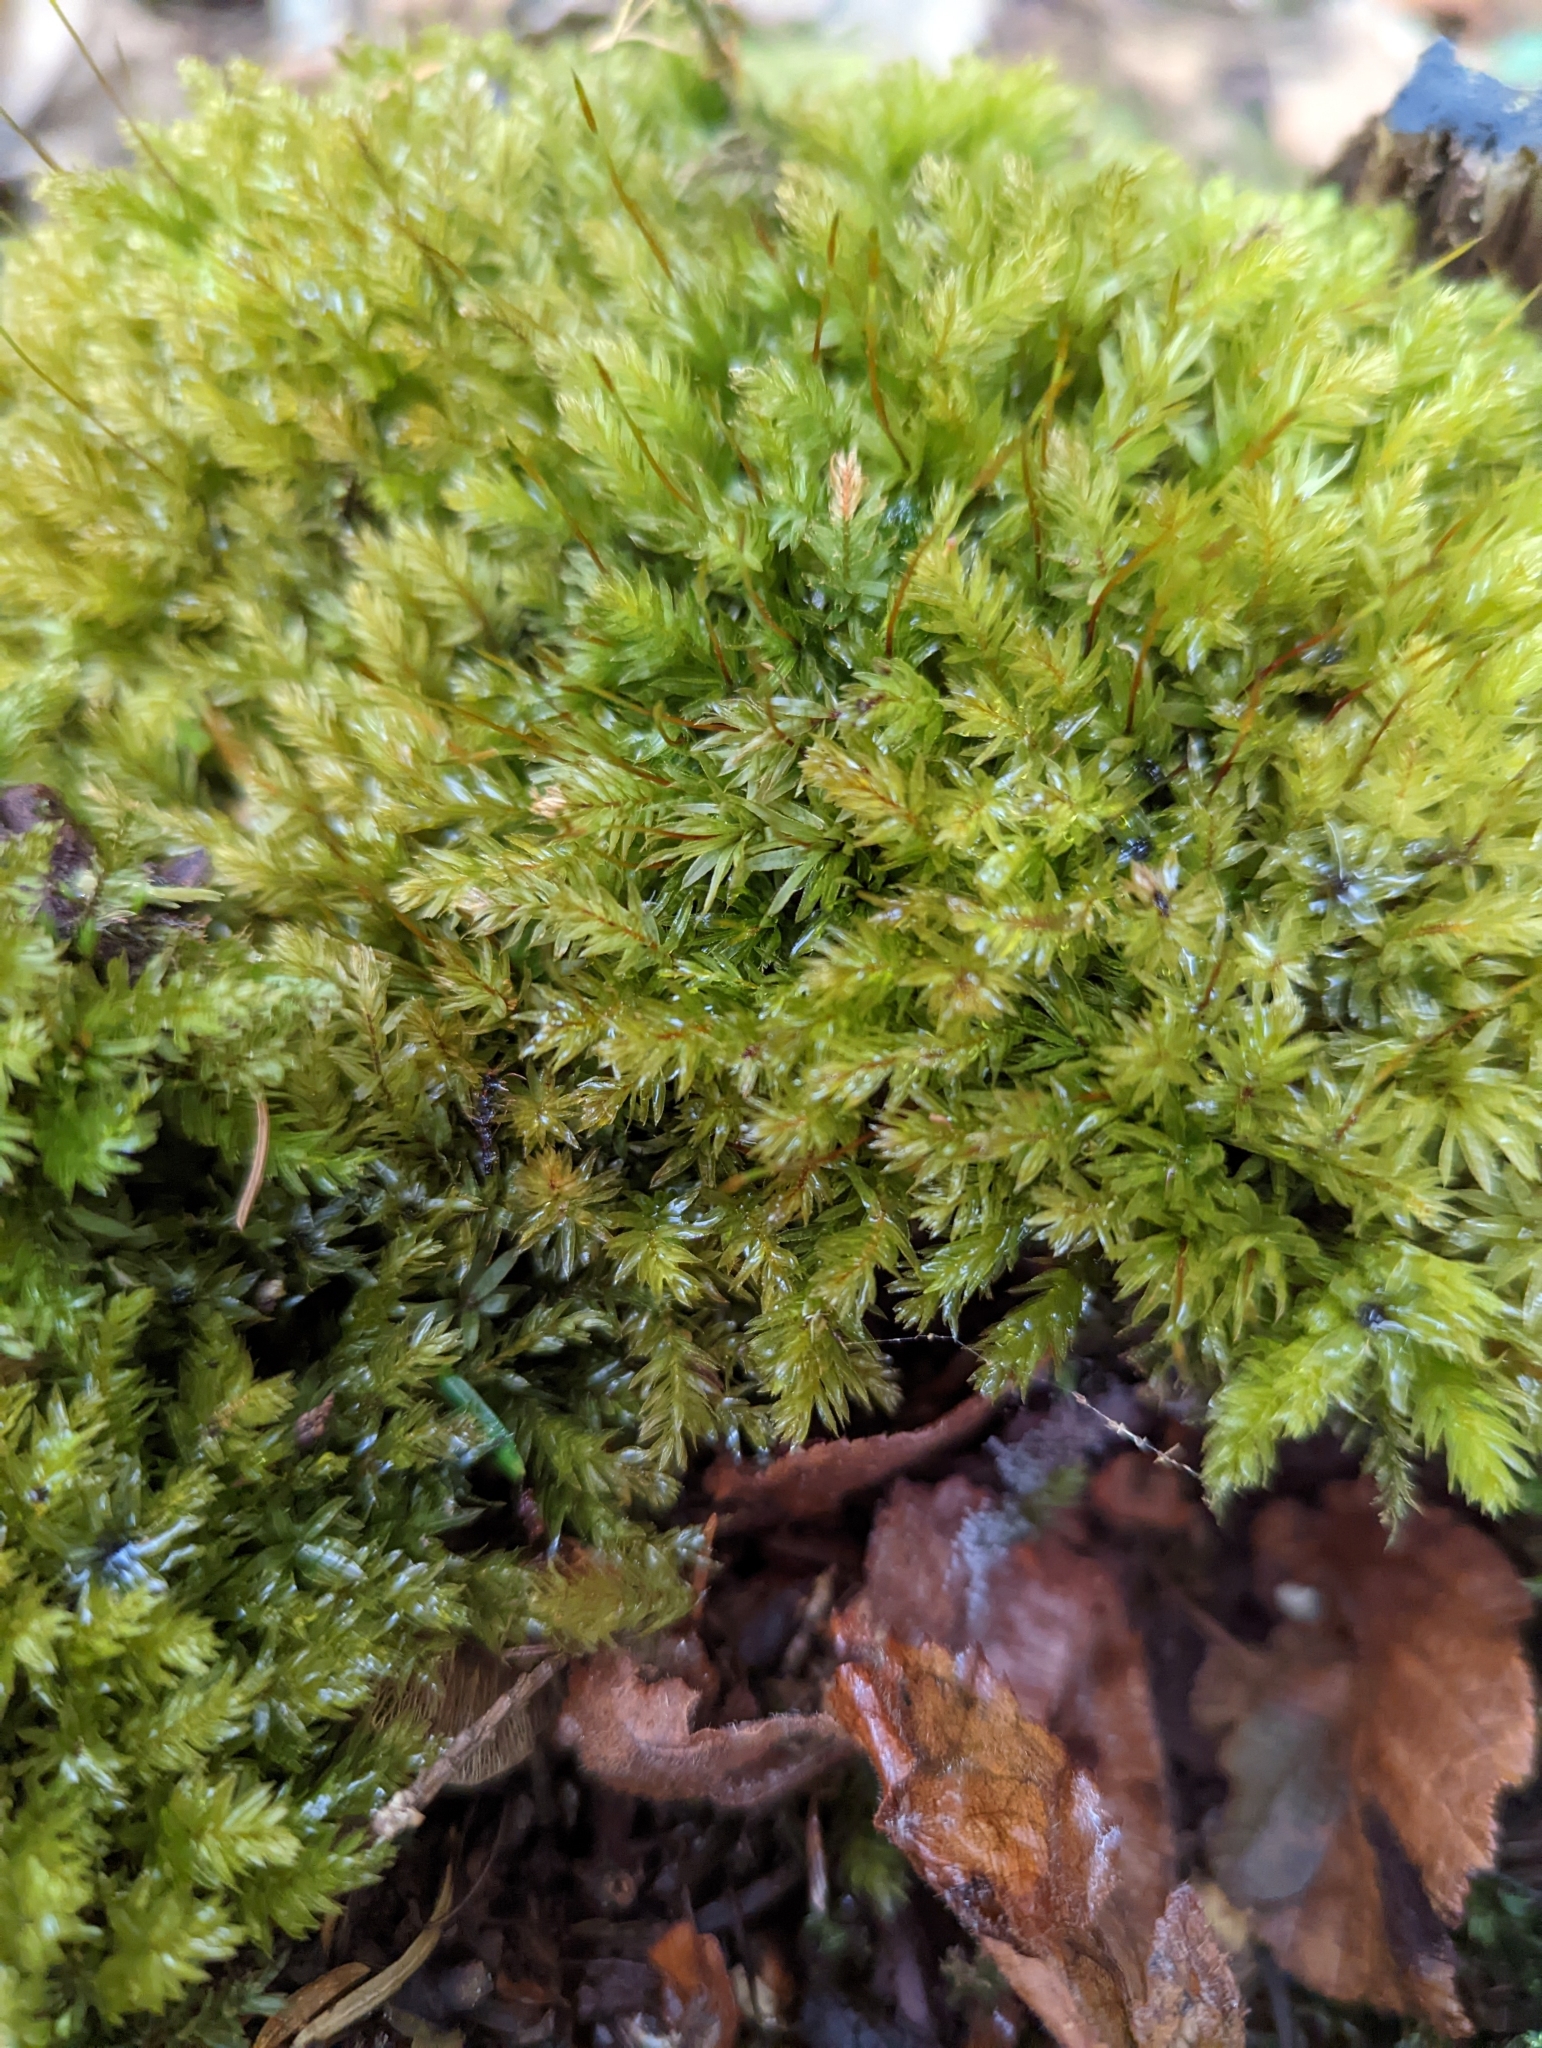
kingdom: Plantae
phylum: Bryophyta
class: Bryopsida
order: Bryales
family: Mniaceae
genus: Mnium
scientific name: Mnium hornum
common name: Swan's-neck leafy moss
